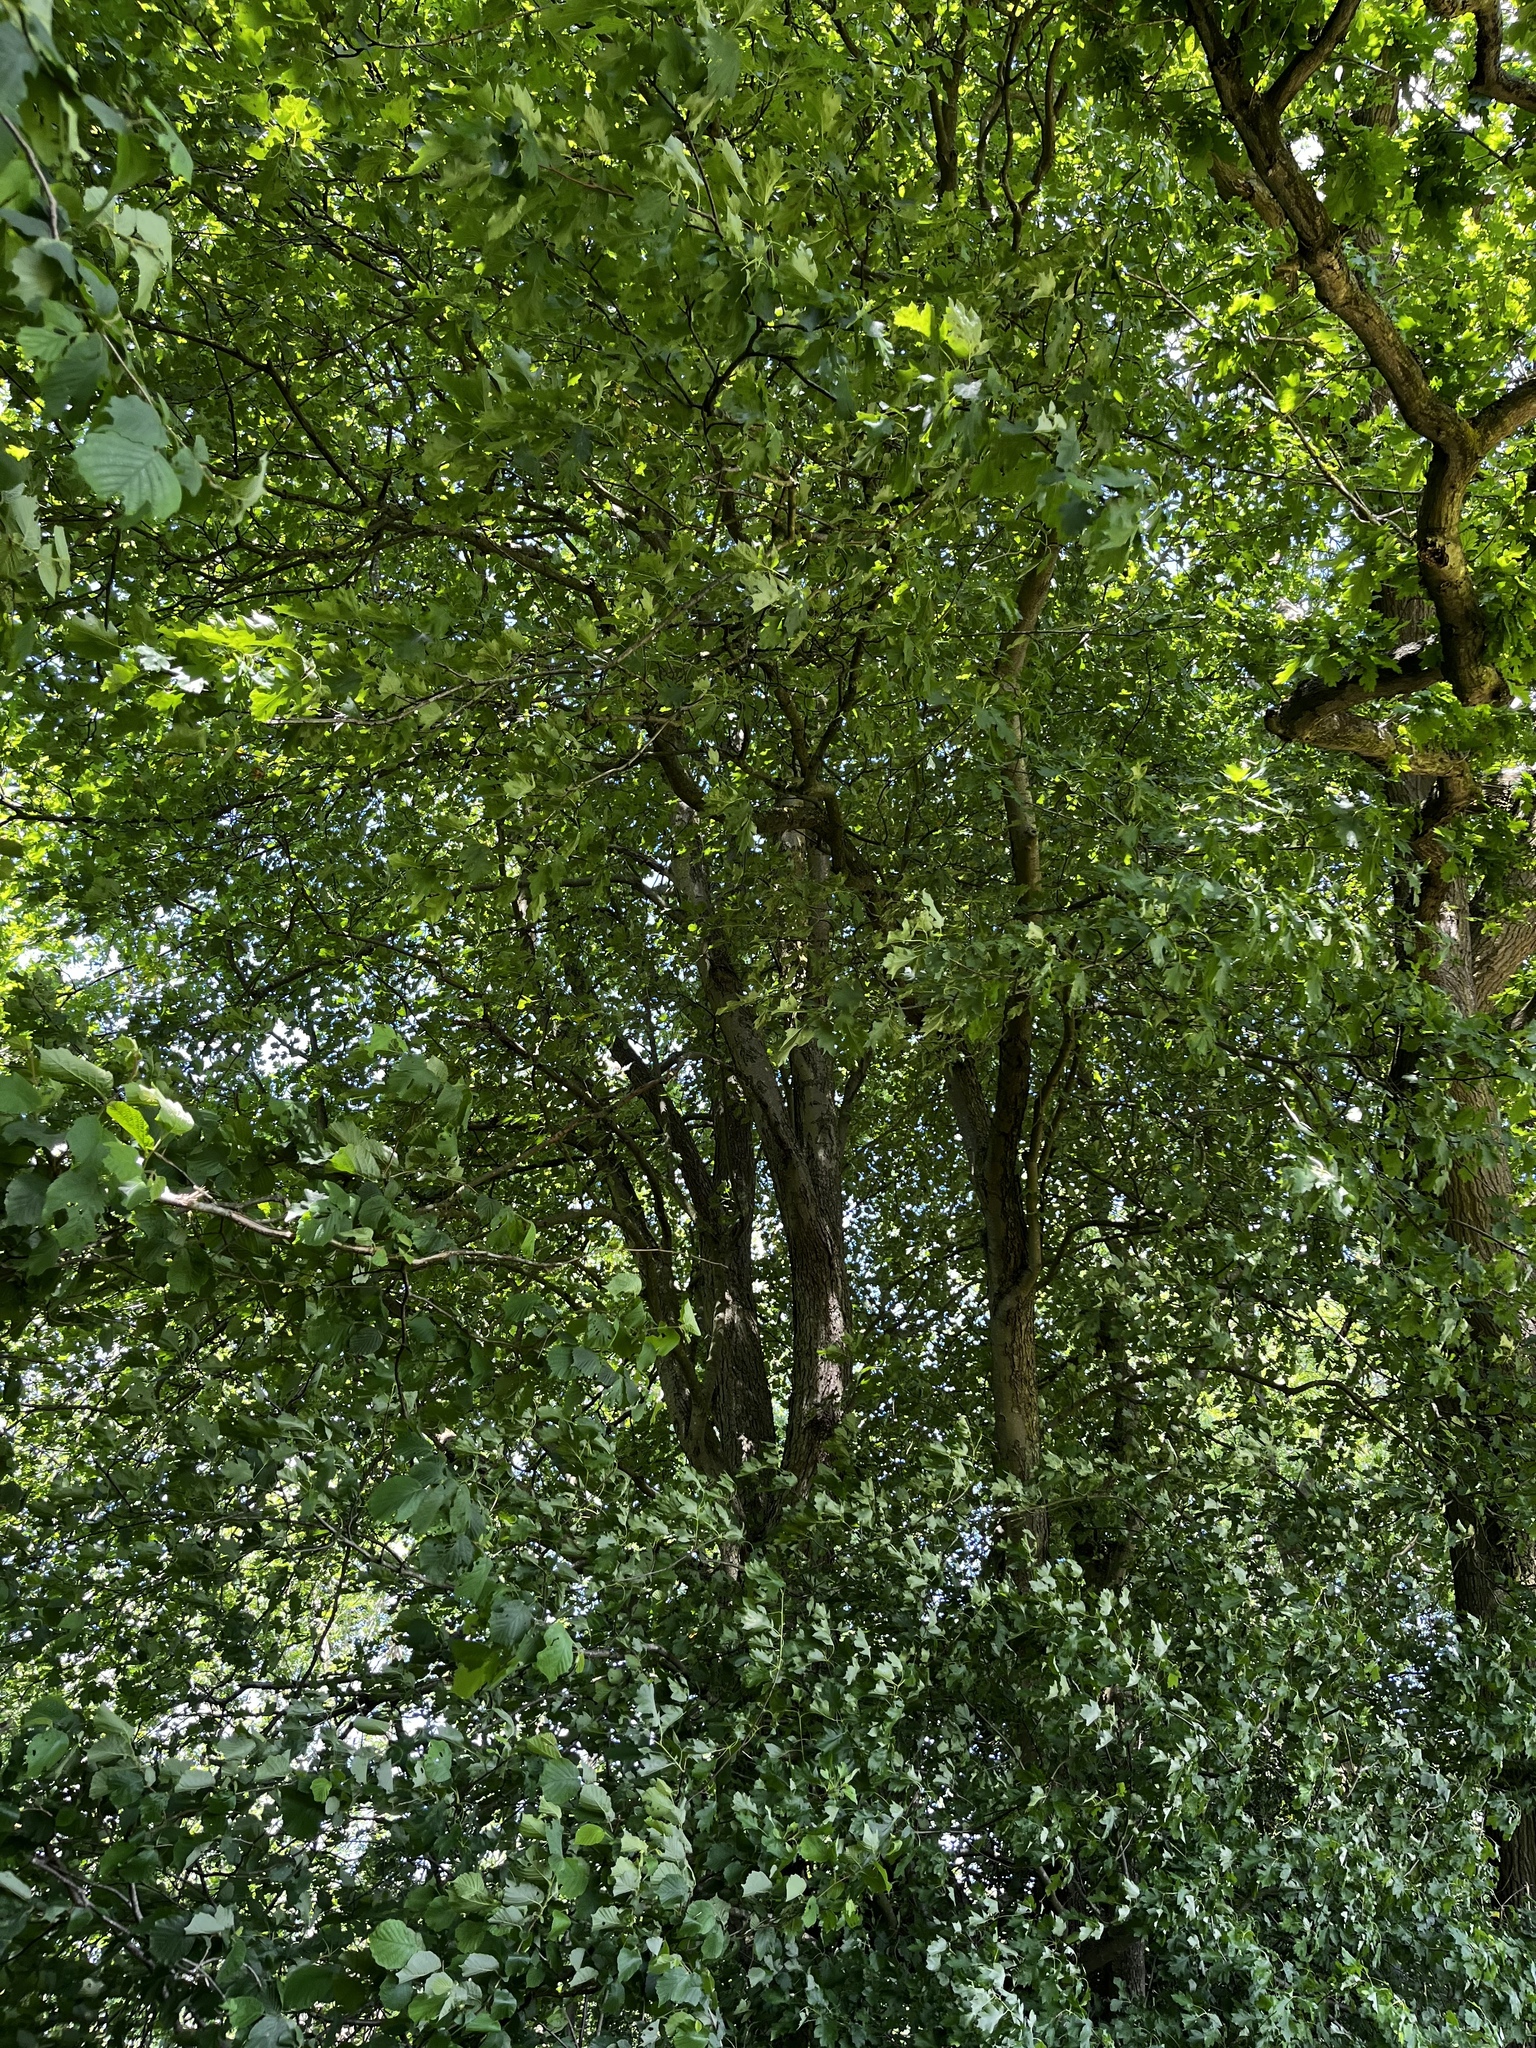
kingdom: Plantae
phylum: Tracheophyta
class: Magnoliopsida
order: Rosales
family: Rosaceae
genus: Torminalis
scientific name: Torminalis glaberrima
